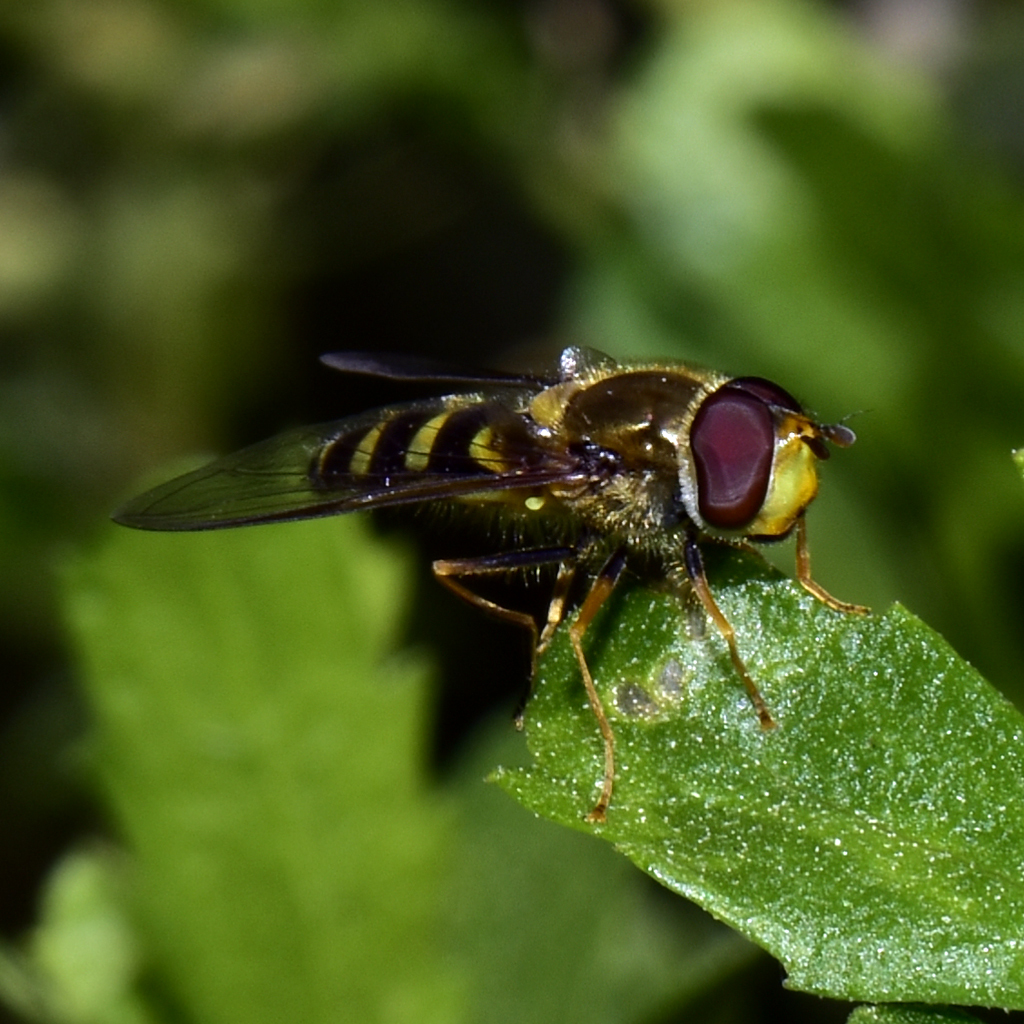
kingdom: Animalia
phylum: Arthropoda
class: Insecta
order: Diptera
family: Syrphidae
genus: Syrphus
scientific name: Syrphus opinator
